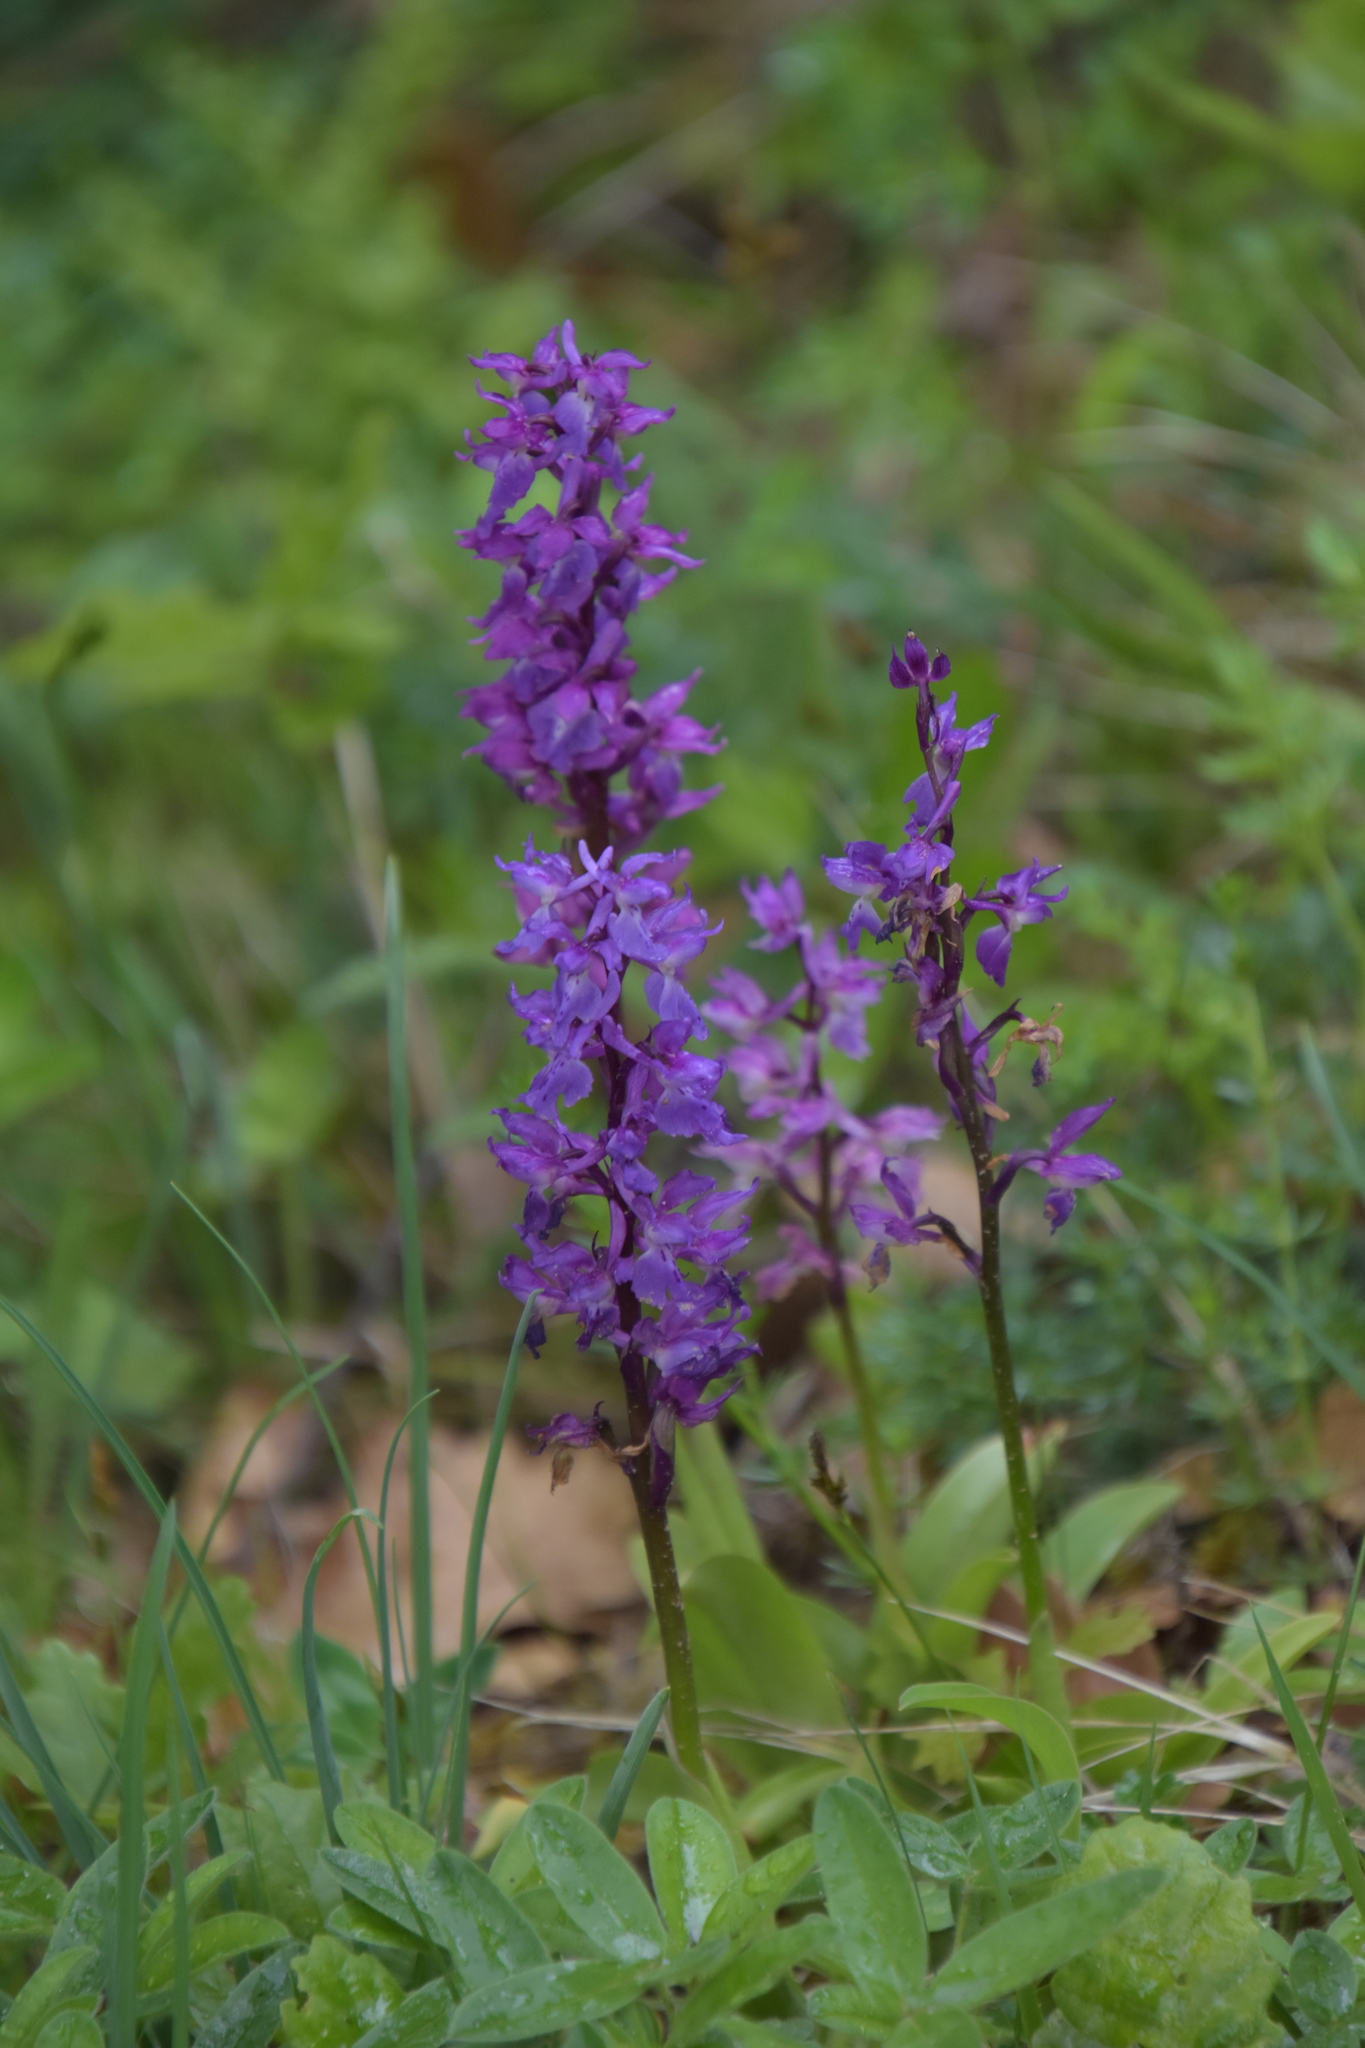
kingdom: Plantae
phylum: Tracheophyta
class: Liliopsida
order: Asparagales
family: Orchidaceae
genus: Orchis
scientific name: Orchis mascula
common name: Early-purple orchid
